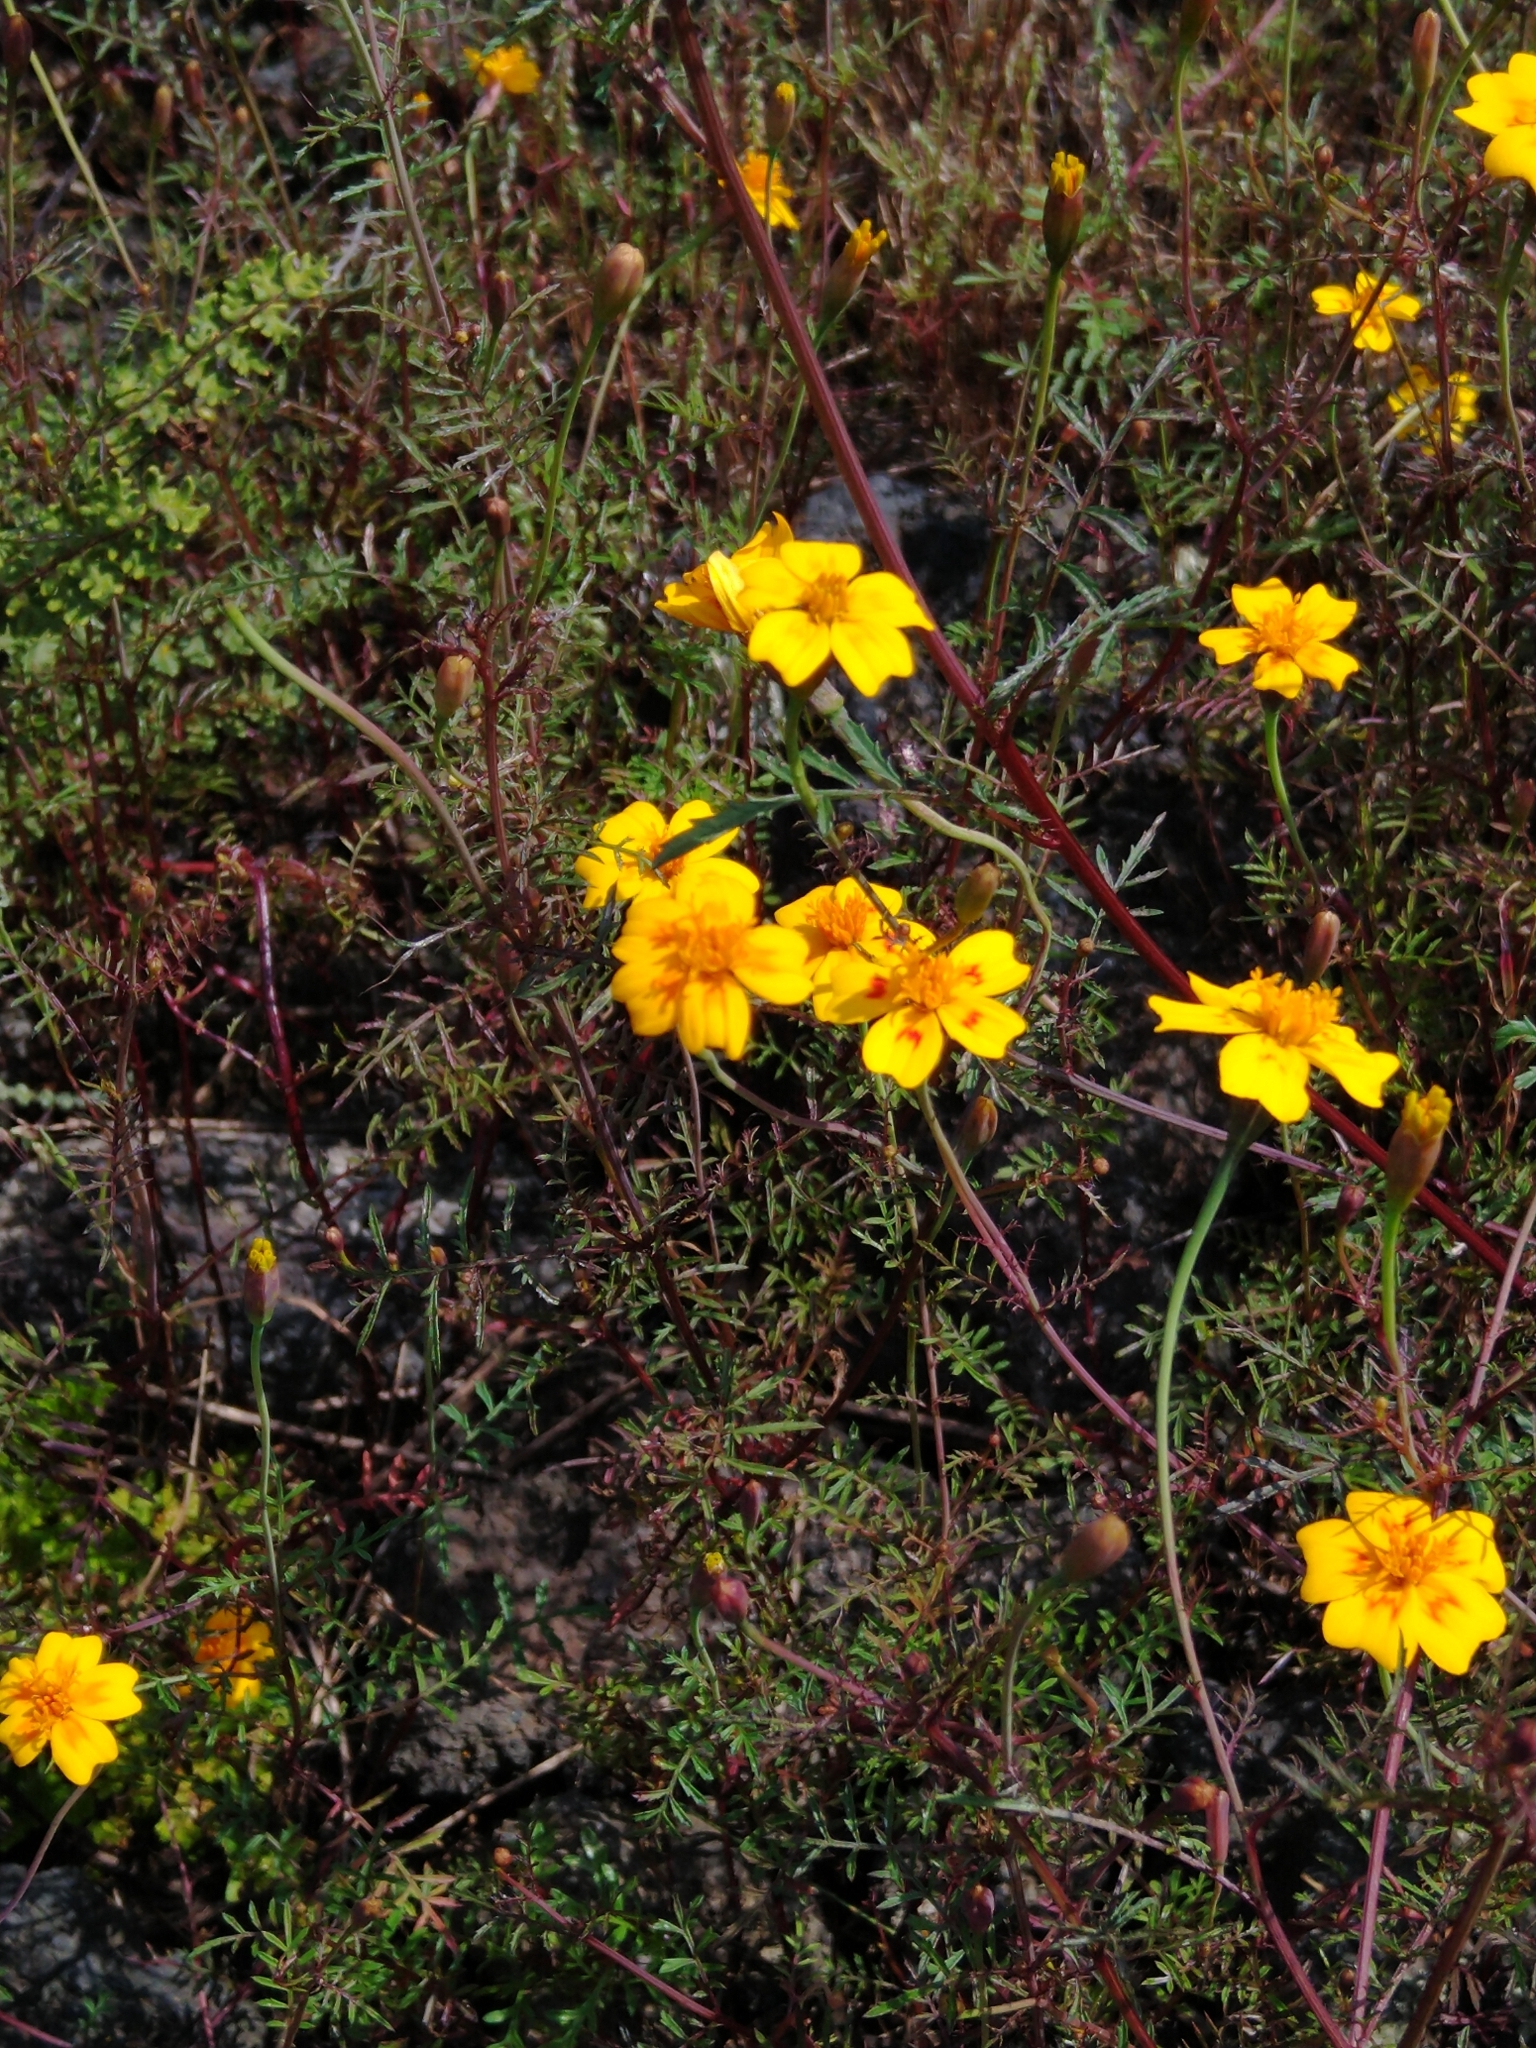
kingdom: Plantae
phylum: Tracheophyta
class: Magnoliopsida
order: Asterales
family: Asteraceae
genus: Tagetes
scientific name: Tagetes lunulata
